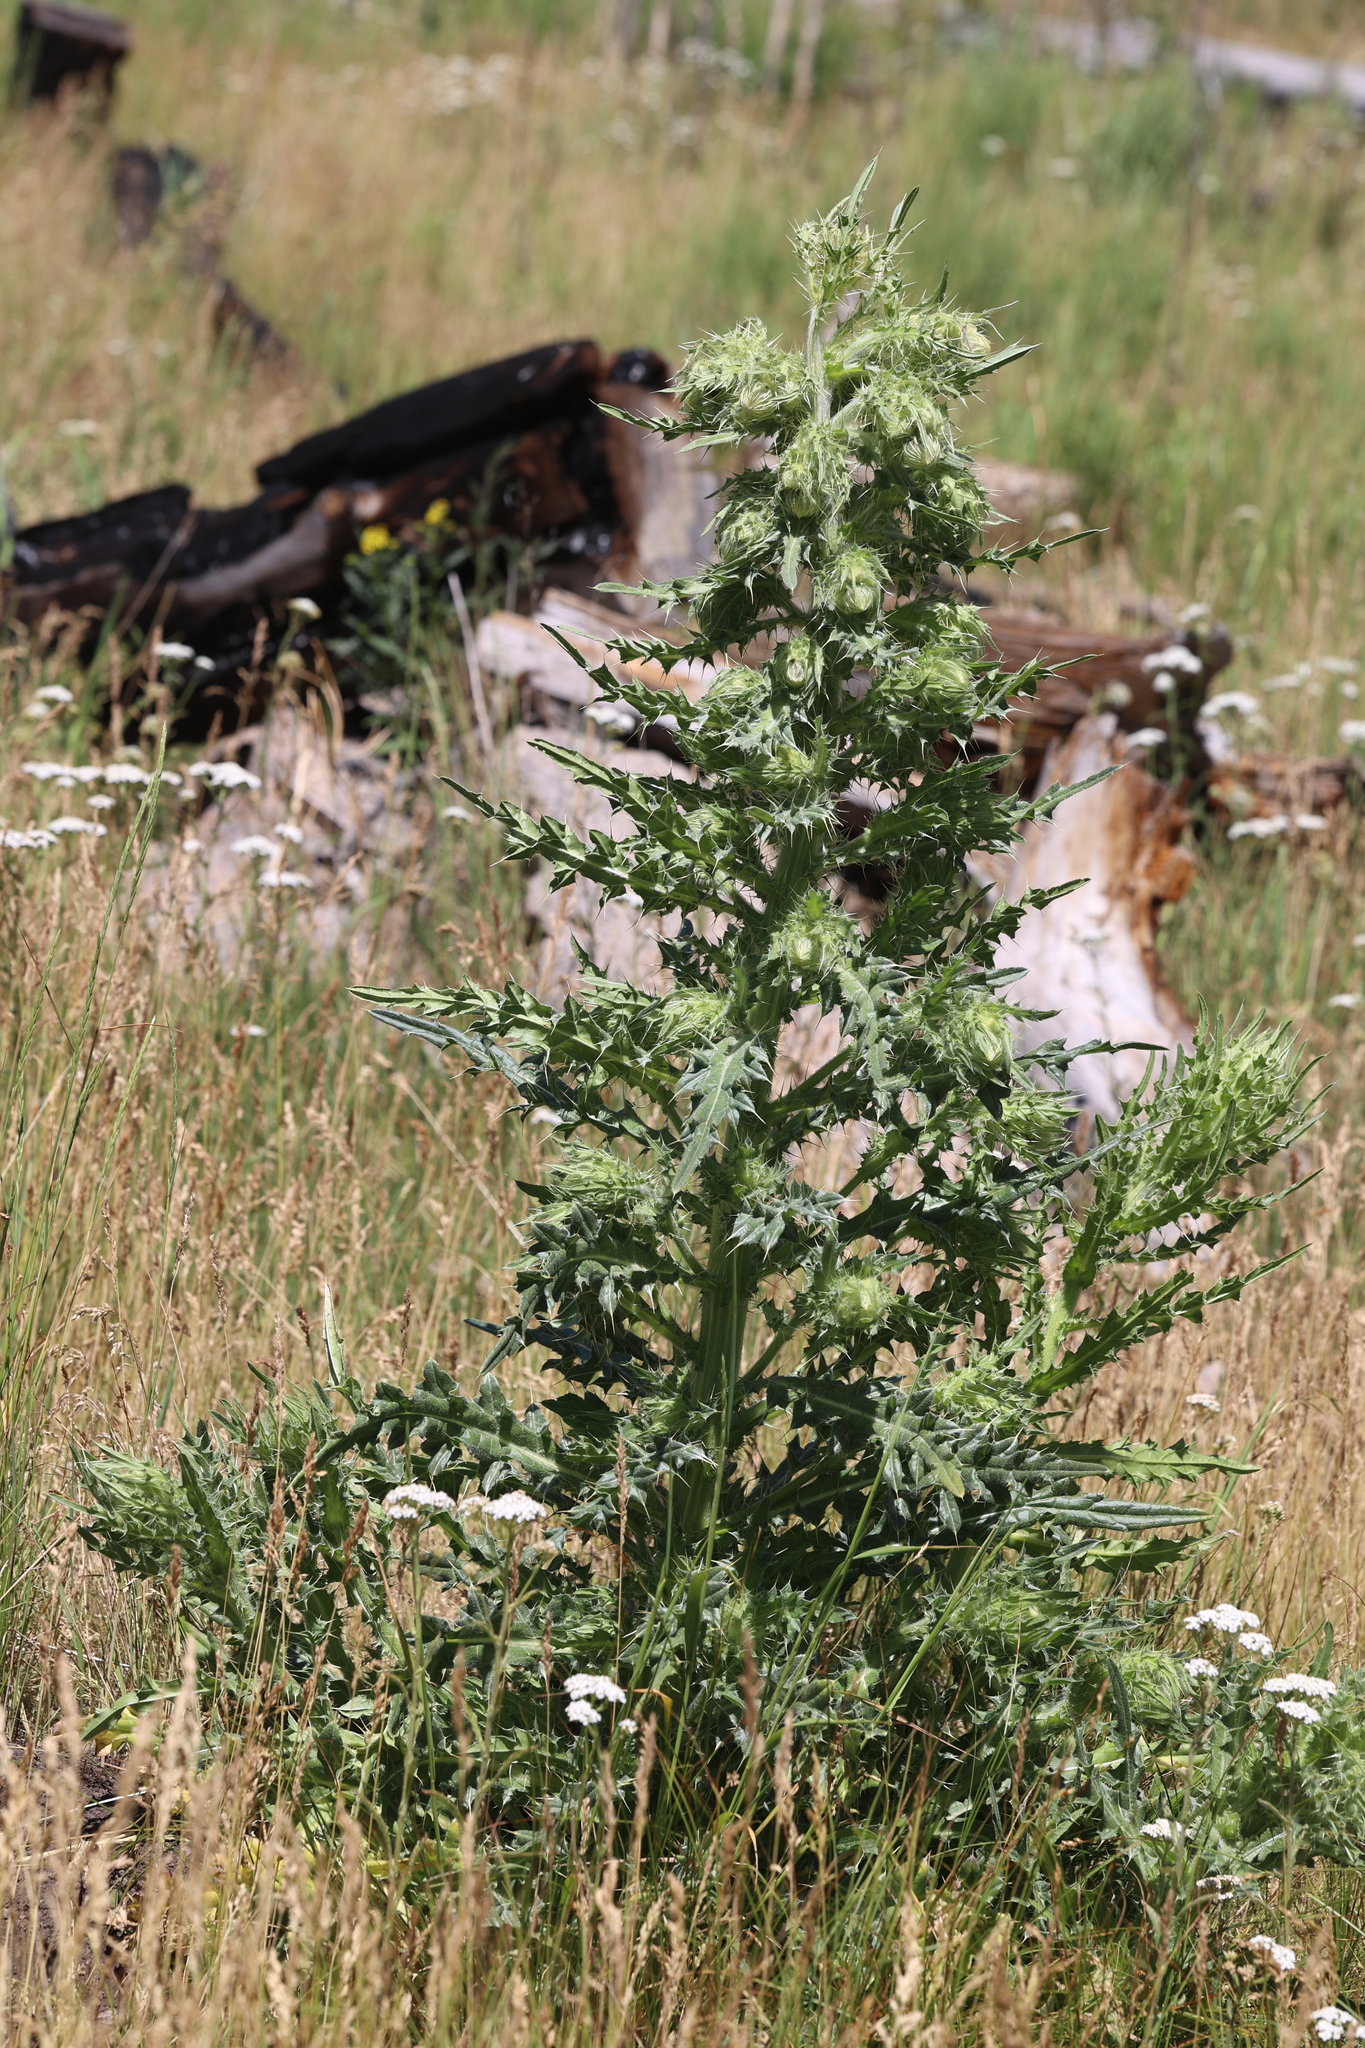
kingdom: Plantae
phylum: Tracheophyta
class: Magnoliopsida
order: Asterales
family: Asteraceae
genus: Cirsium
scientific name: Cirsium parryi
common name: Parry's thistle
